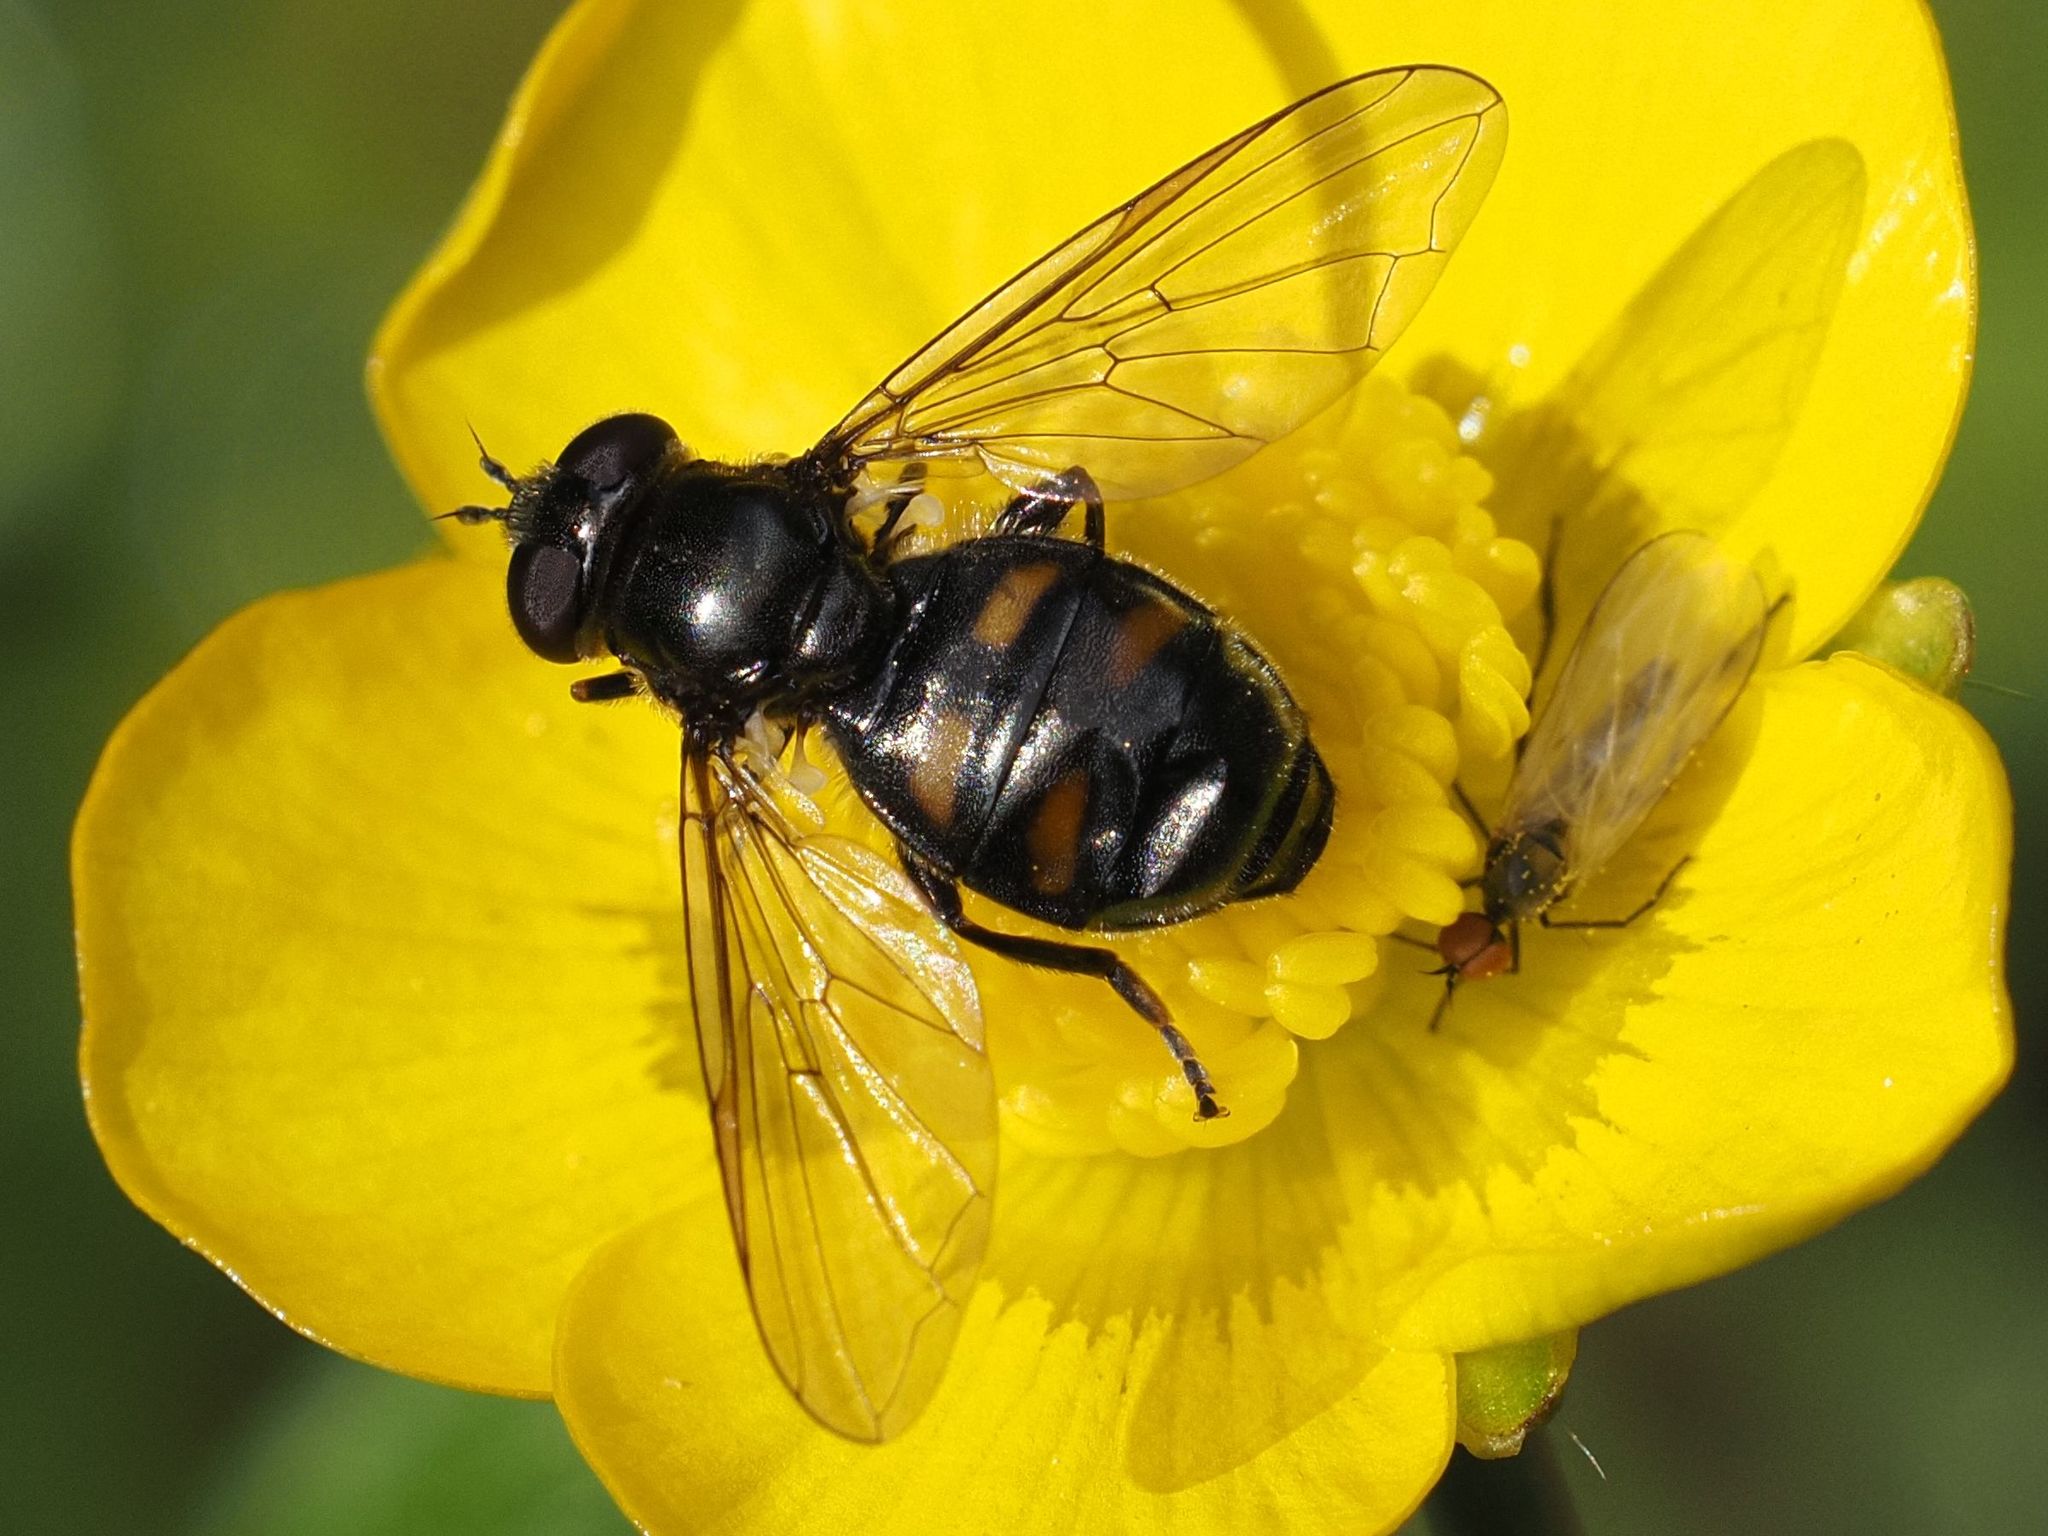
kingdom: Animalia
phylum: Arthropoda
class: Insecta
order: Diptera
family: Syrphidae
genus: Pipiza
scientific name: Pipiza quadrimaculata
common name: Four-spotted pipiza
